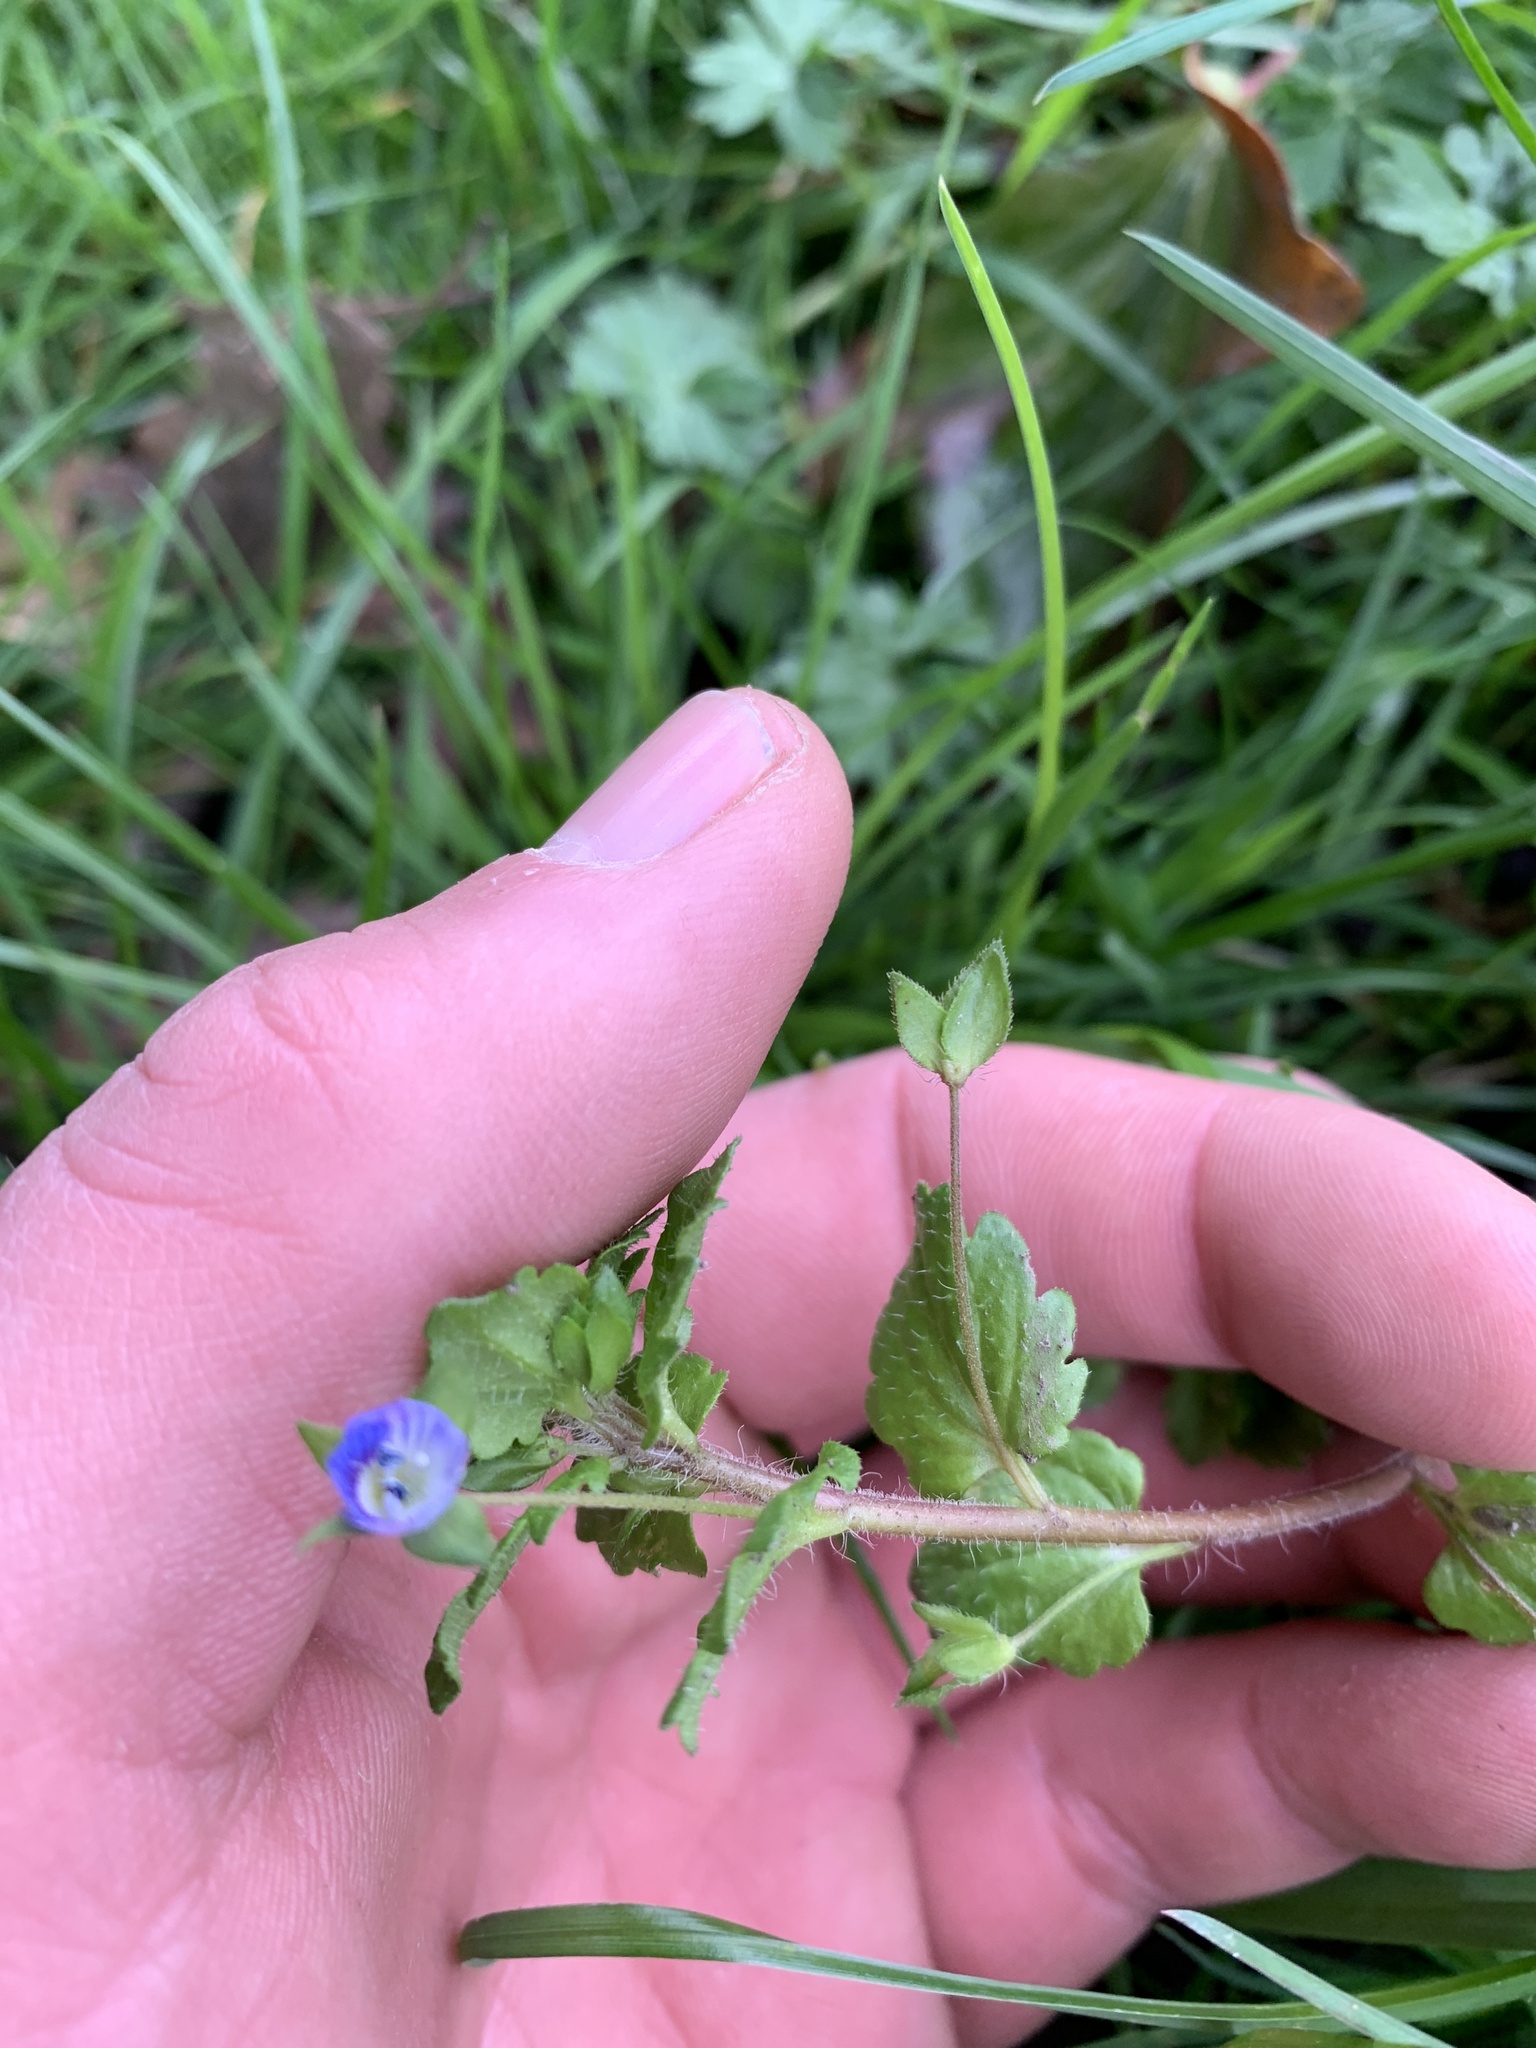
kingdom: Plantae
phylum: Tracheophyta
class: Magnoliopsida
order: Lamiales
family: Plantaginaceae
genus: Veronica
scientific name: Veronica persica
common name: Common field-speedwell
